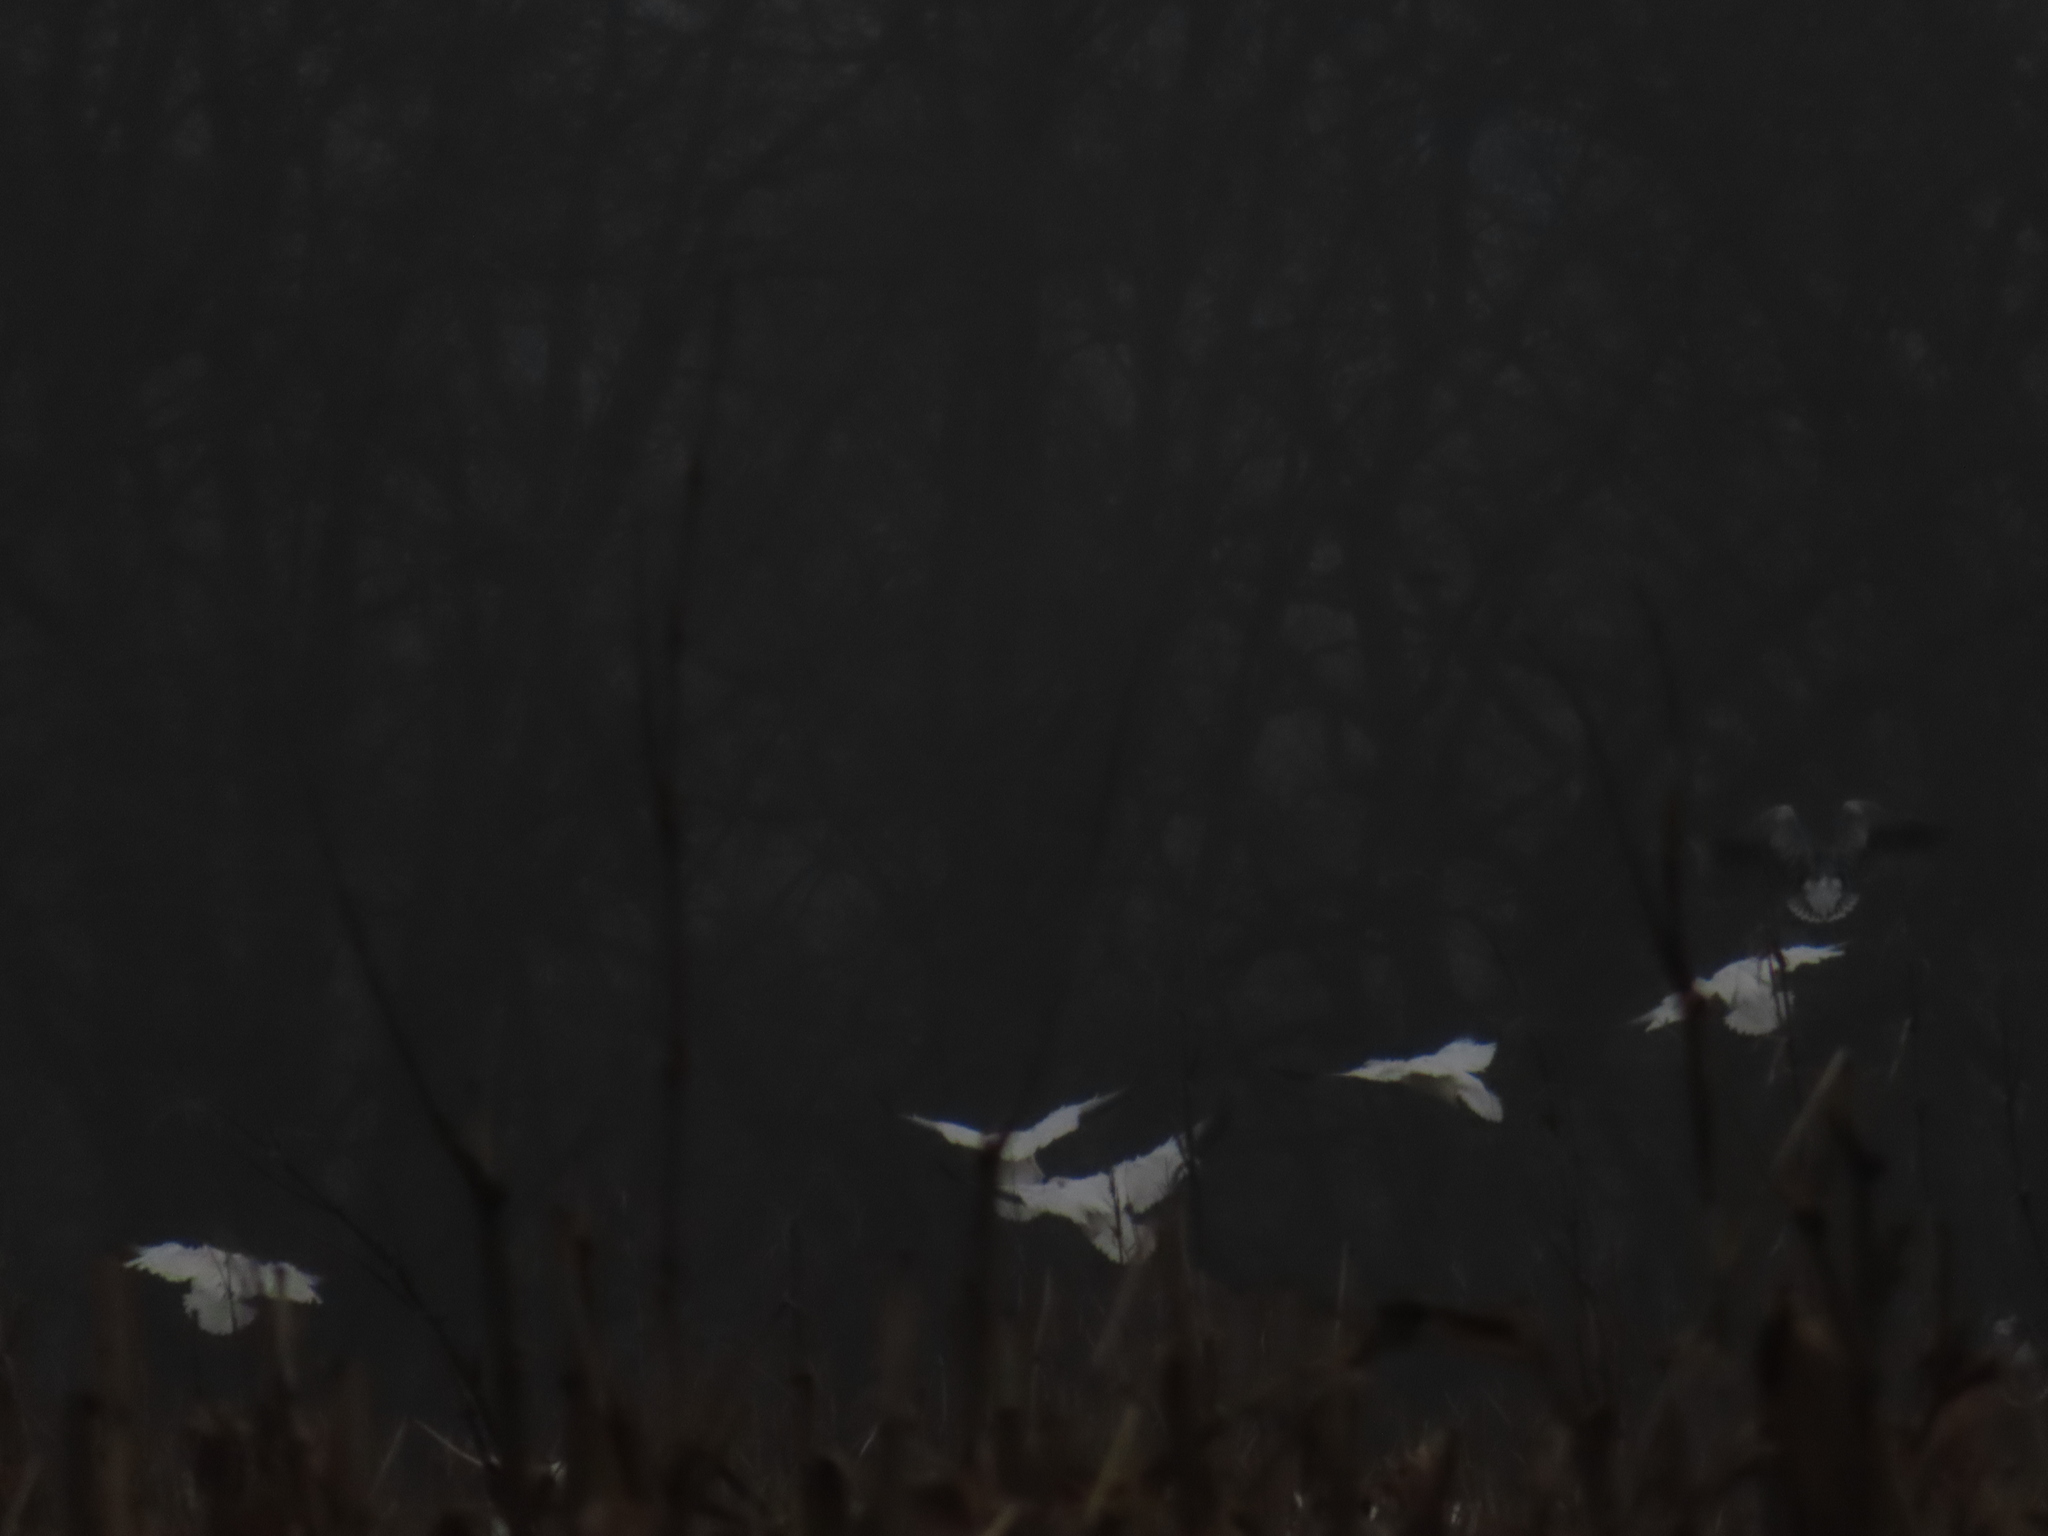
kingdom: Animalia
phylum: Chordata
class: Aves
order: Anseriformes
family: Anatidae
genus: Anser
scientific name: Anser caerulescens
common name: Snow goose
